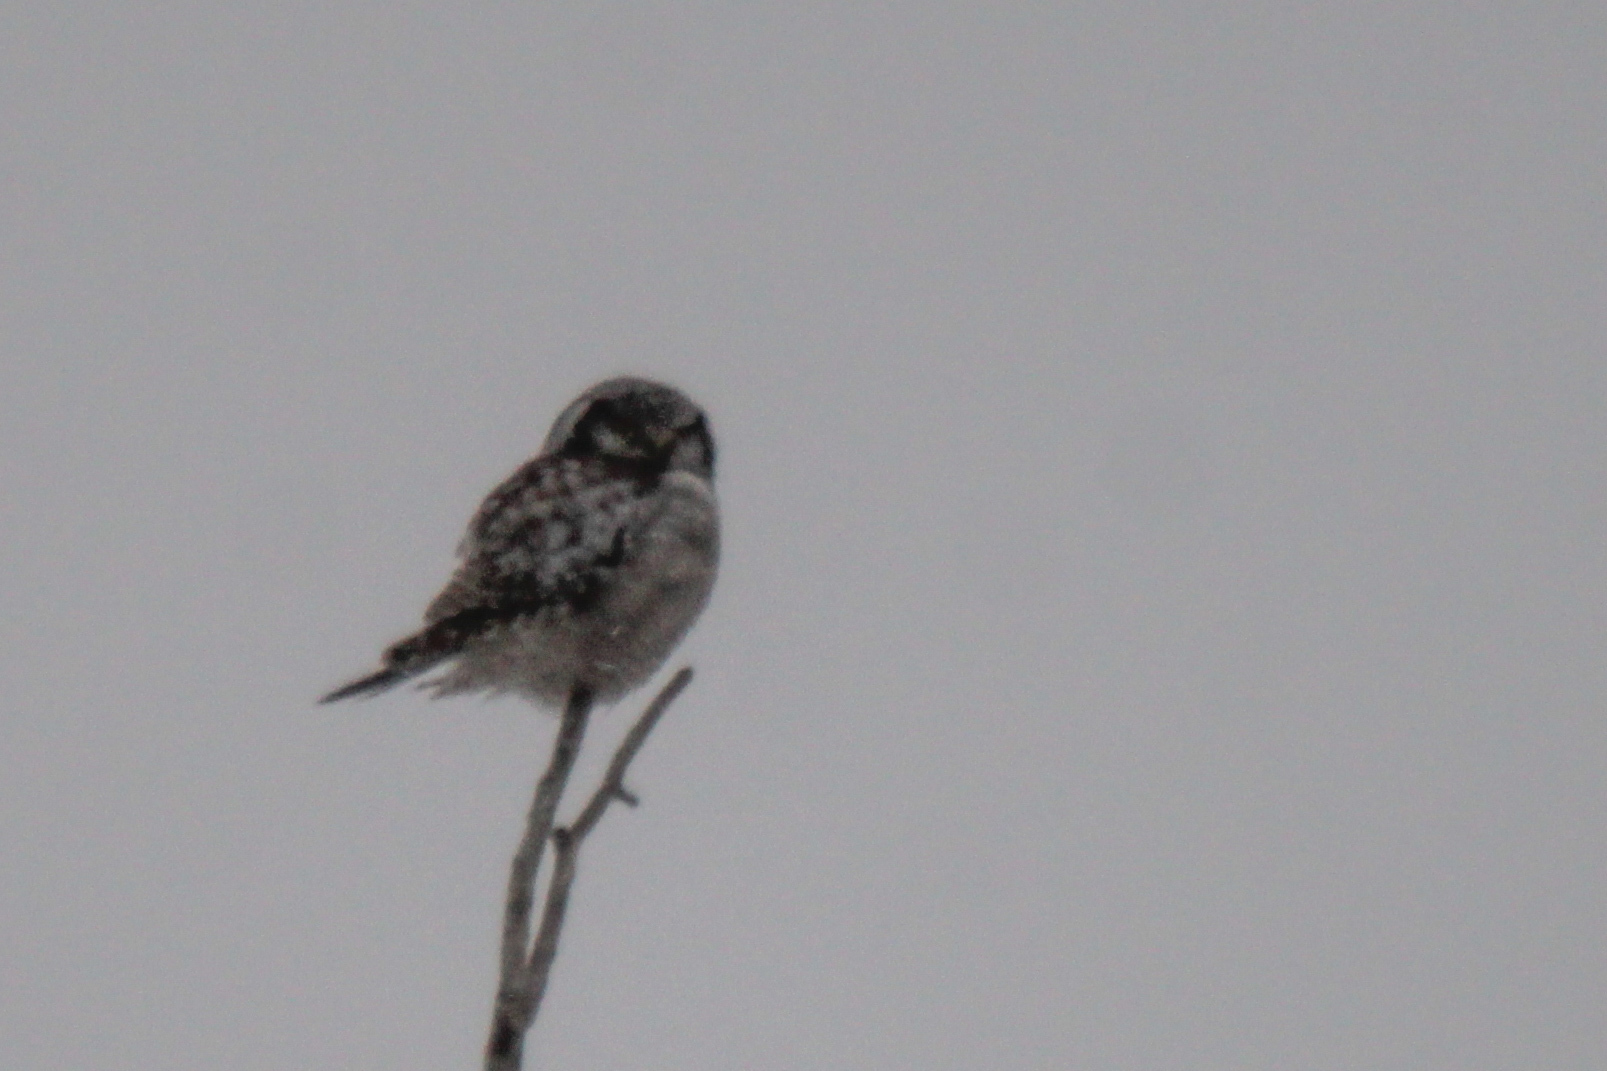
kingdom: Animalia
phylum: Chordata
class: Aves
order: Strigiformes
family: Strigidae
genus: Surnia
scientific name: Surnia ulula
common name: Northern hawk-owl
